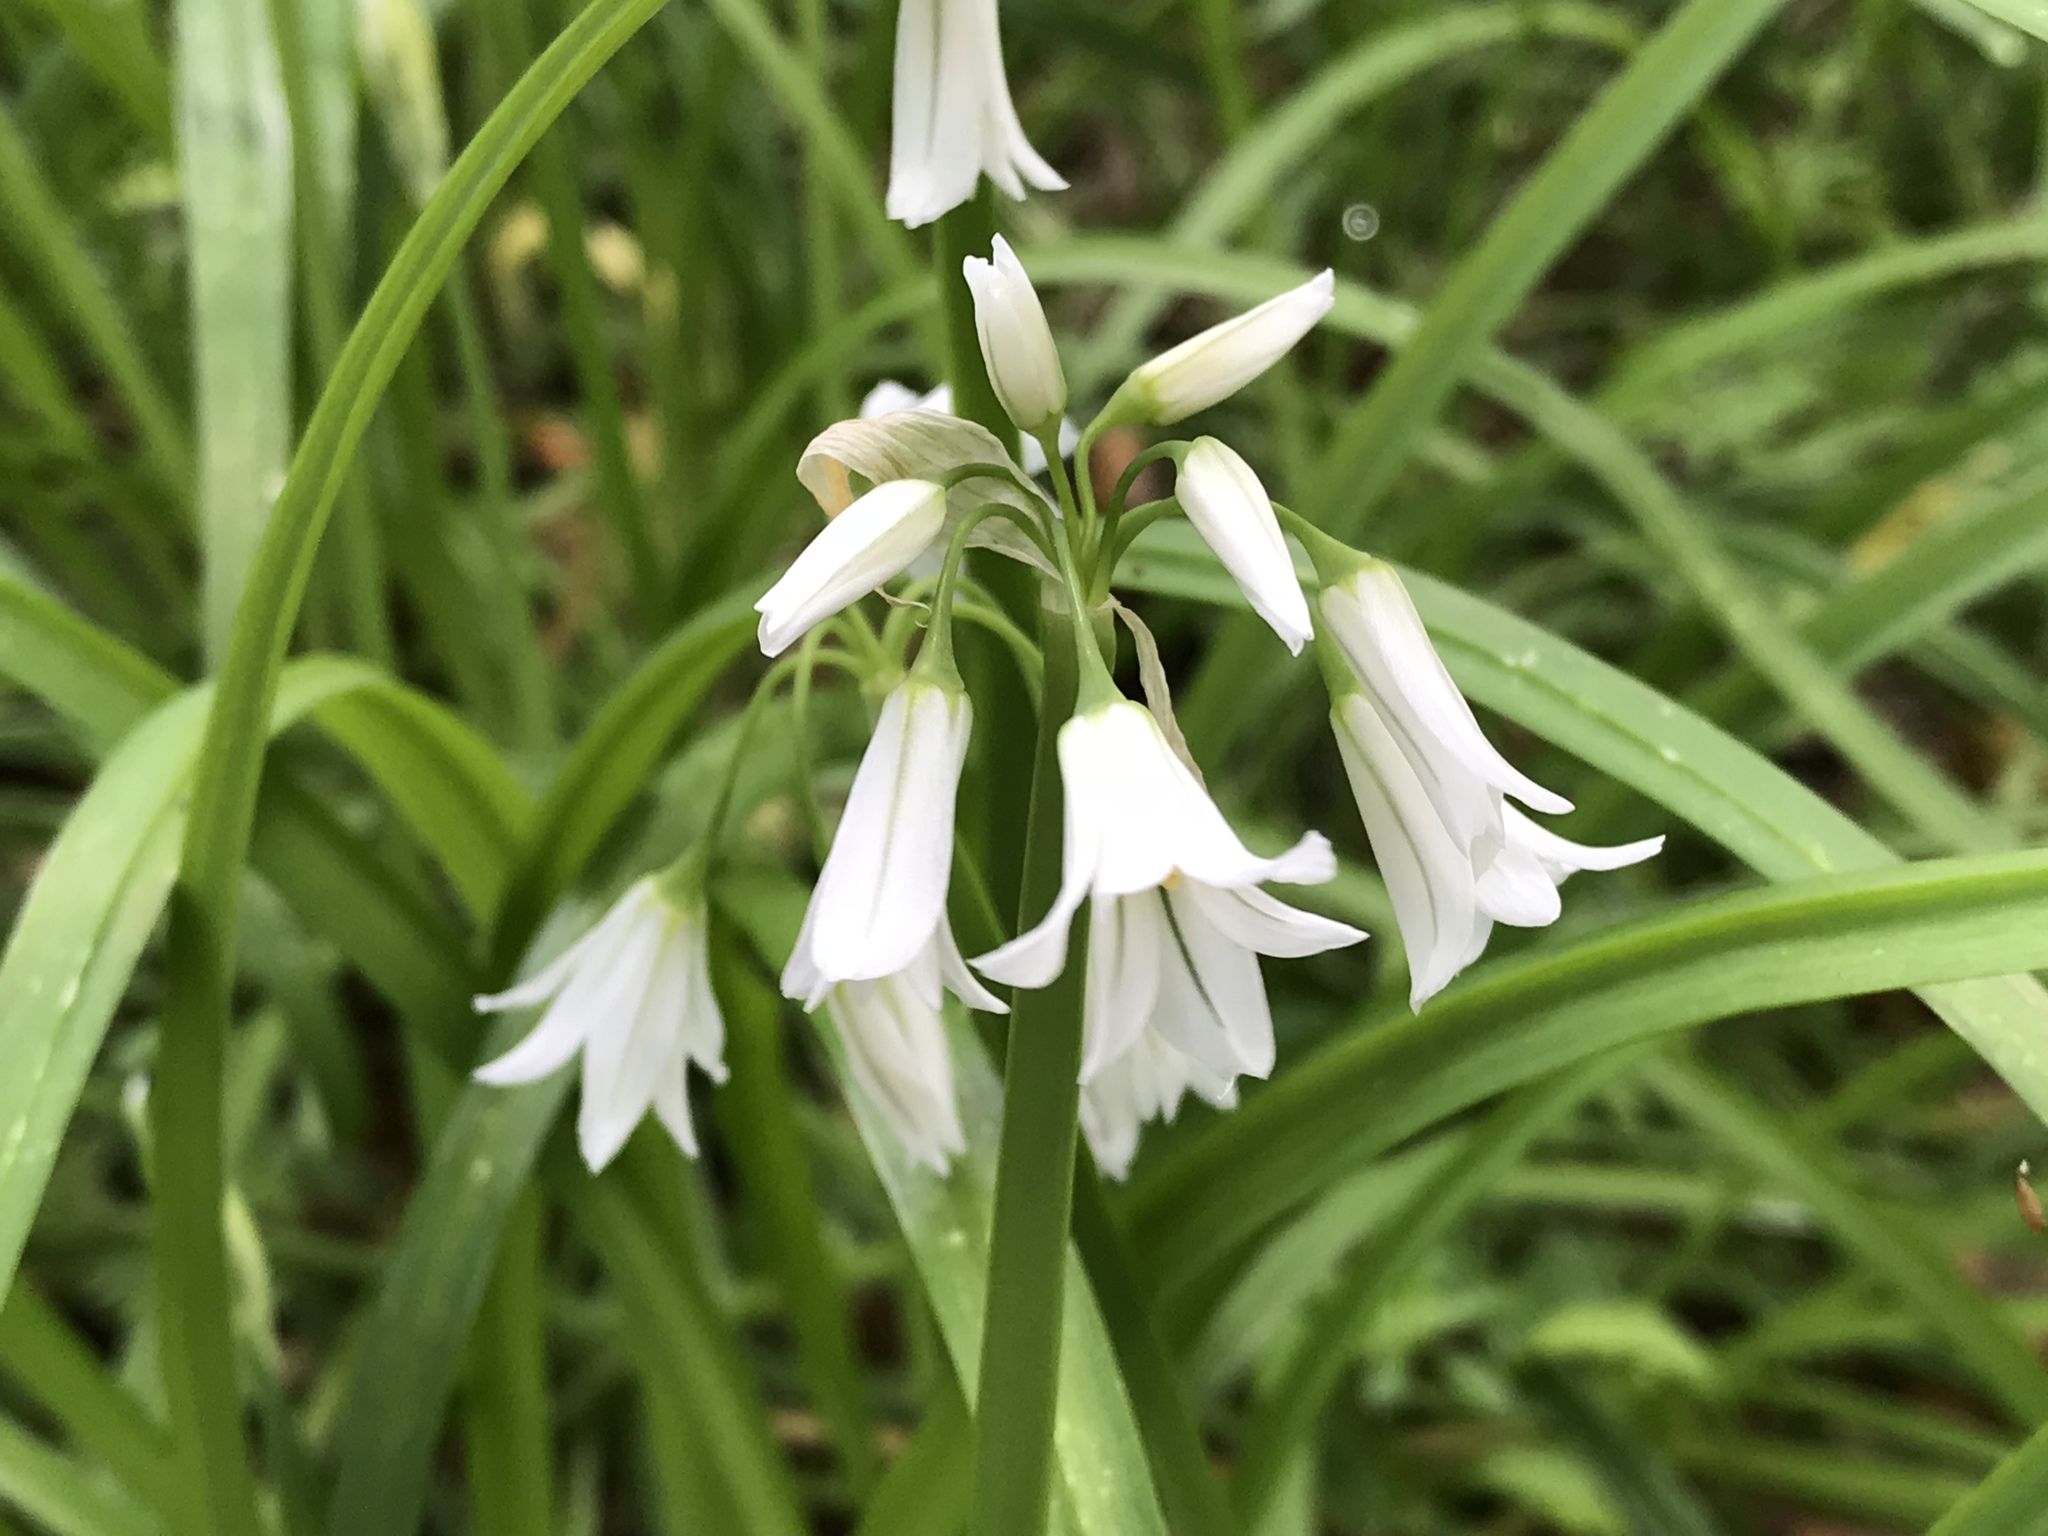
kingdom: Plantae
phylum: Tracheophyta
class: Liliopsida
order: Asparagales
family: Amaryllidaceae
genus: Allium
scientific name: Allium triquetrum
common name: Three-cornered garlic
